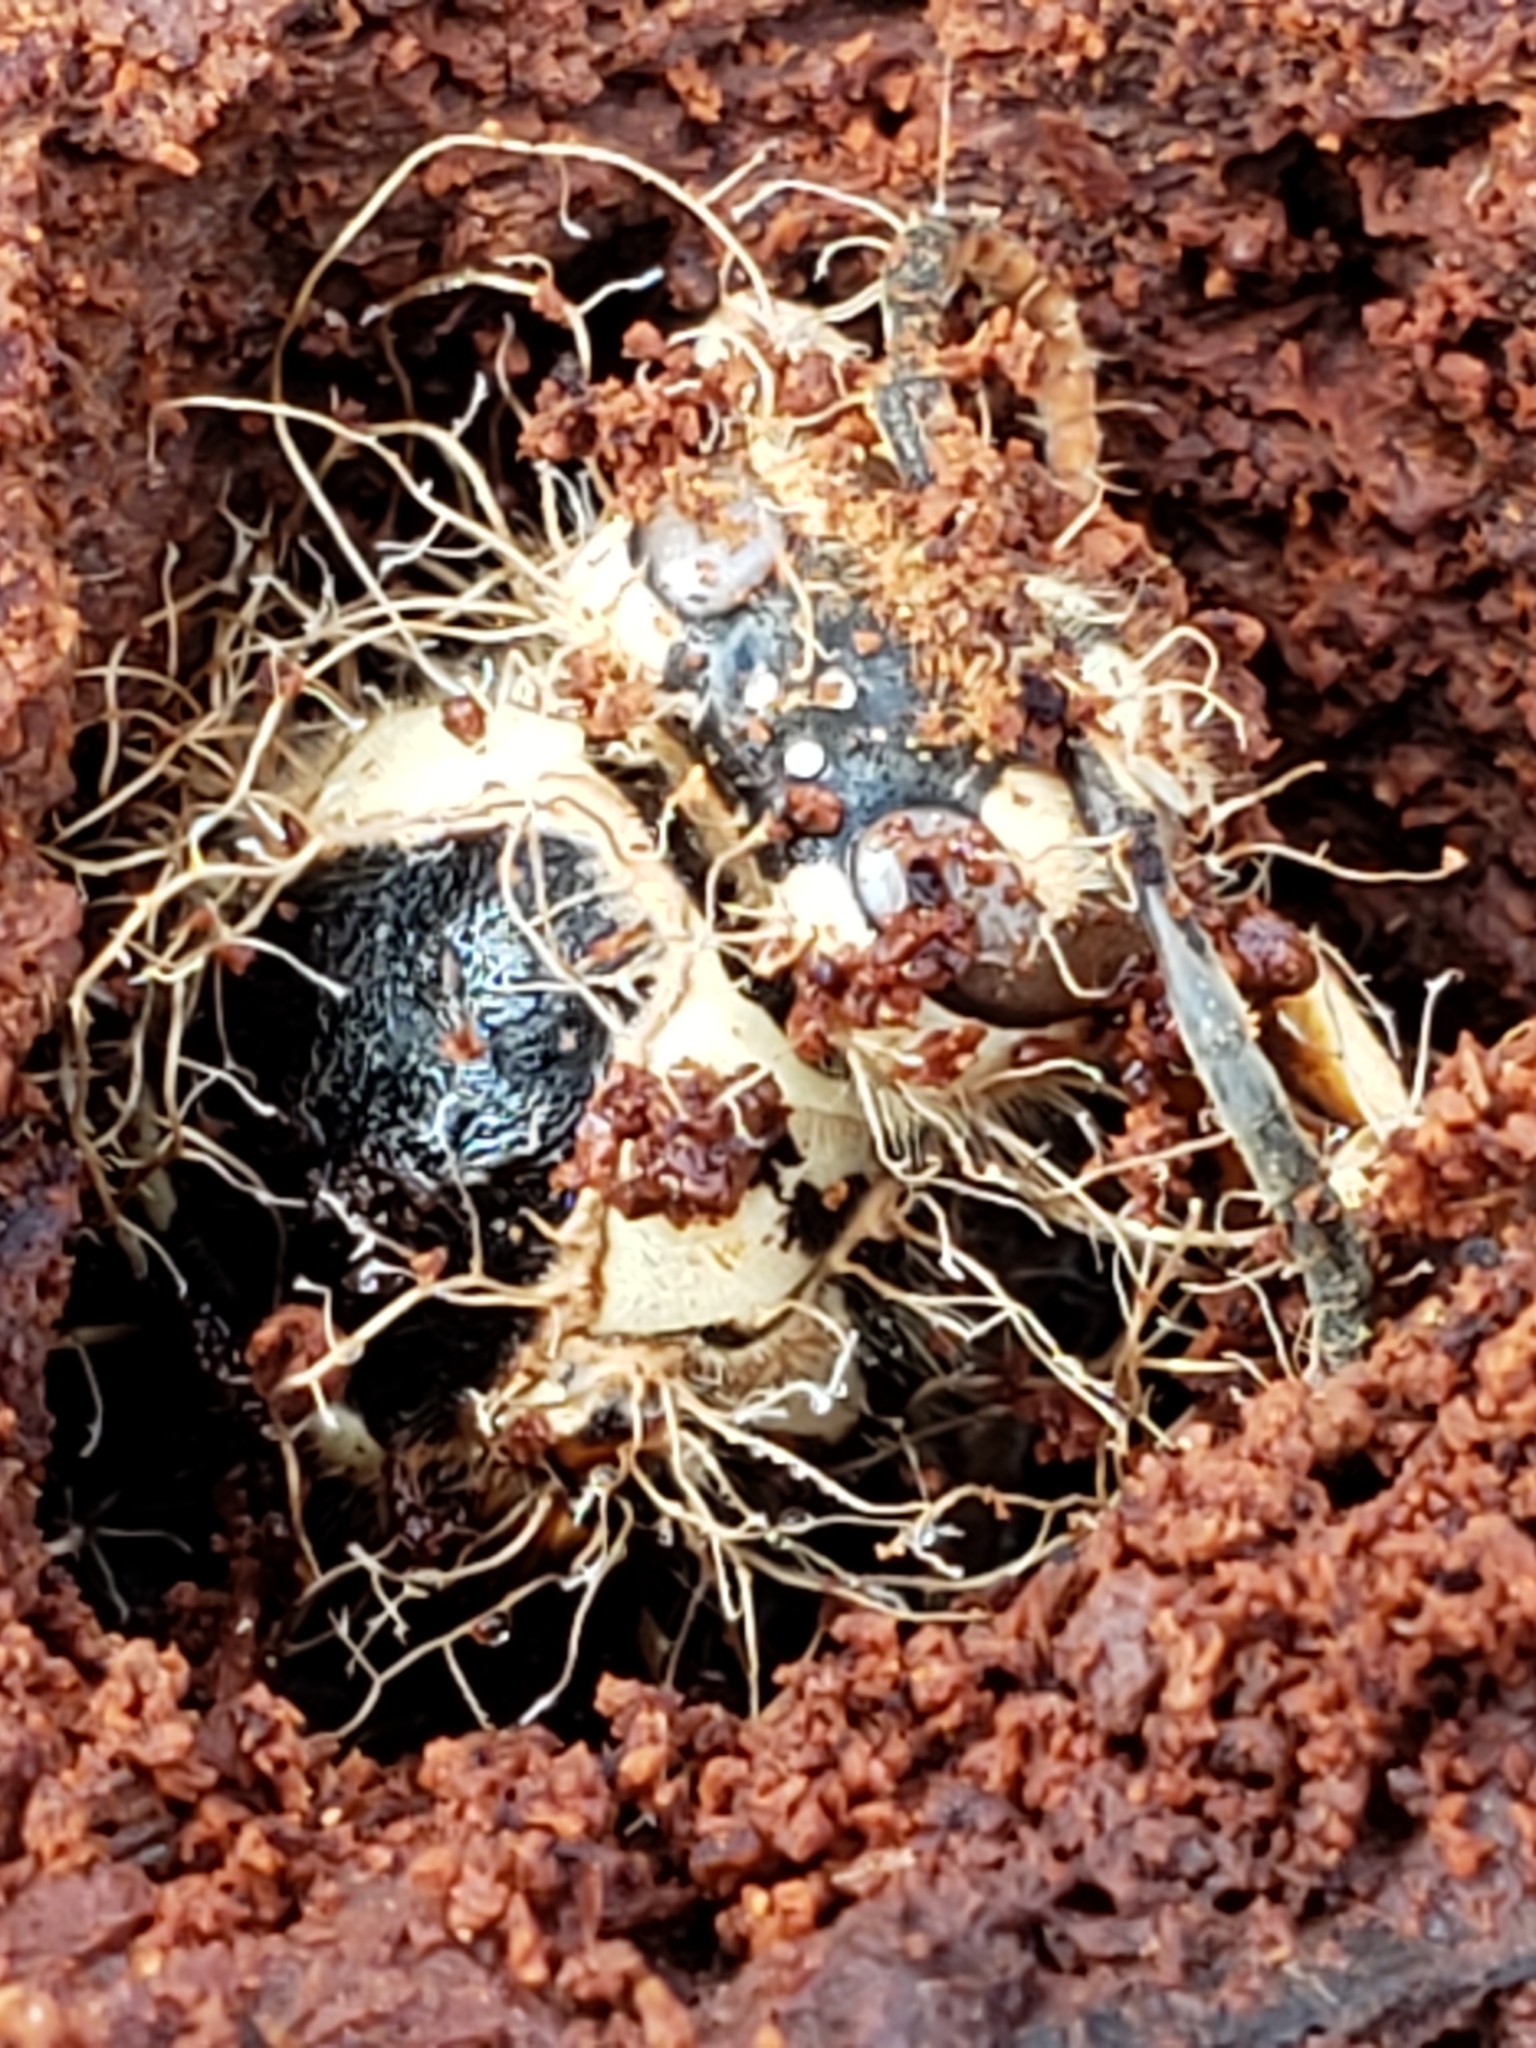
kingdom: Animalia
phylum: Arthropoda
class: Insecta
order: Hymenoptera
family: Vespidae
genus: Dolichovespula
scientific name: Dolichovespula maculata
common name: Bald-faced hornet
